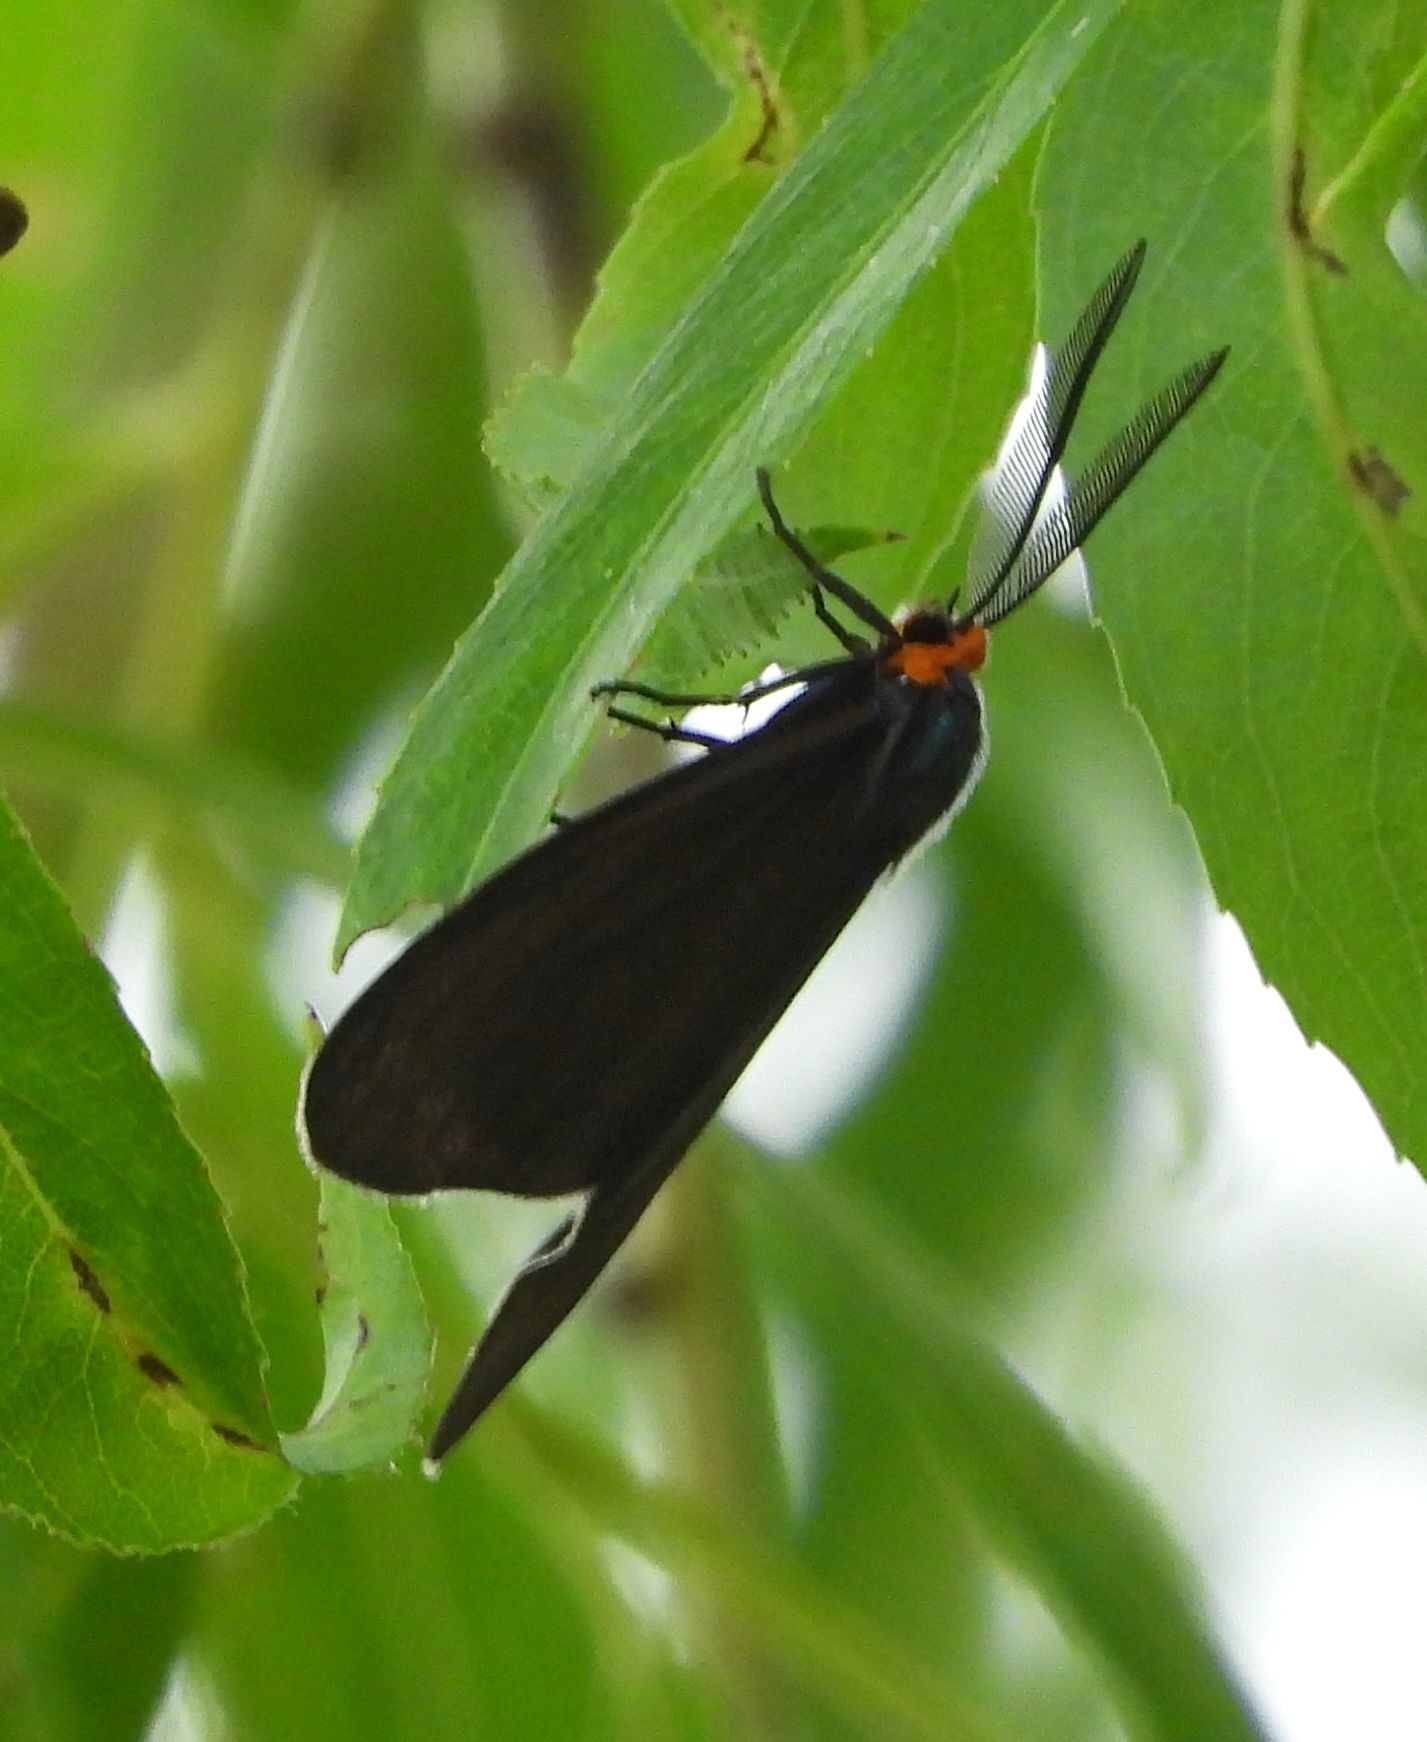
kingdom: Animalia
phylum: Arthropoda
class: Insecta
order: Lepidoptera
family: Erebidae
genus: Ctenucha
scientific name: Ctenucha virginica
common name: Virginia ctenucha moth
